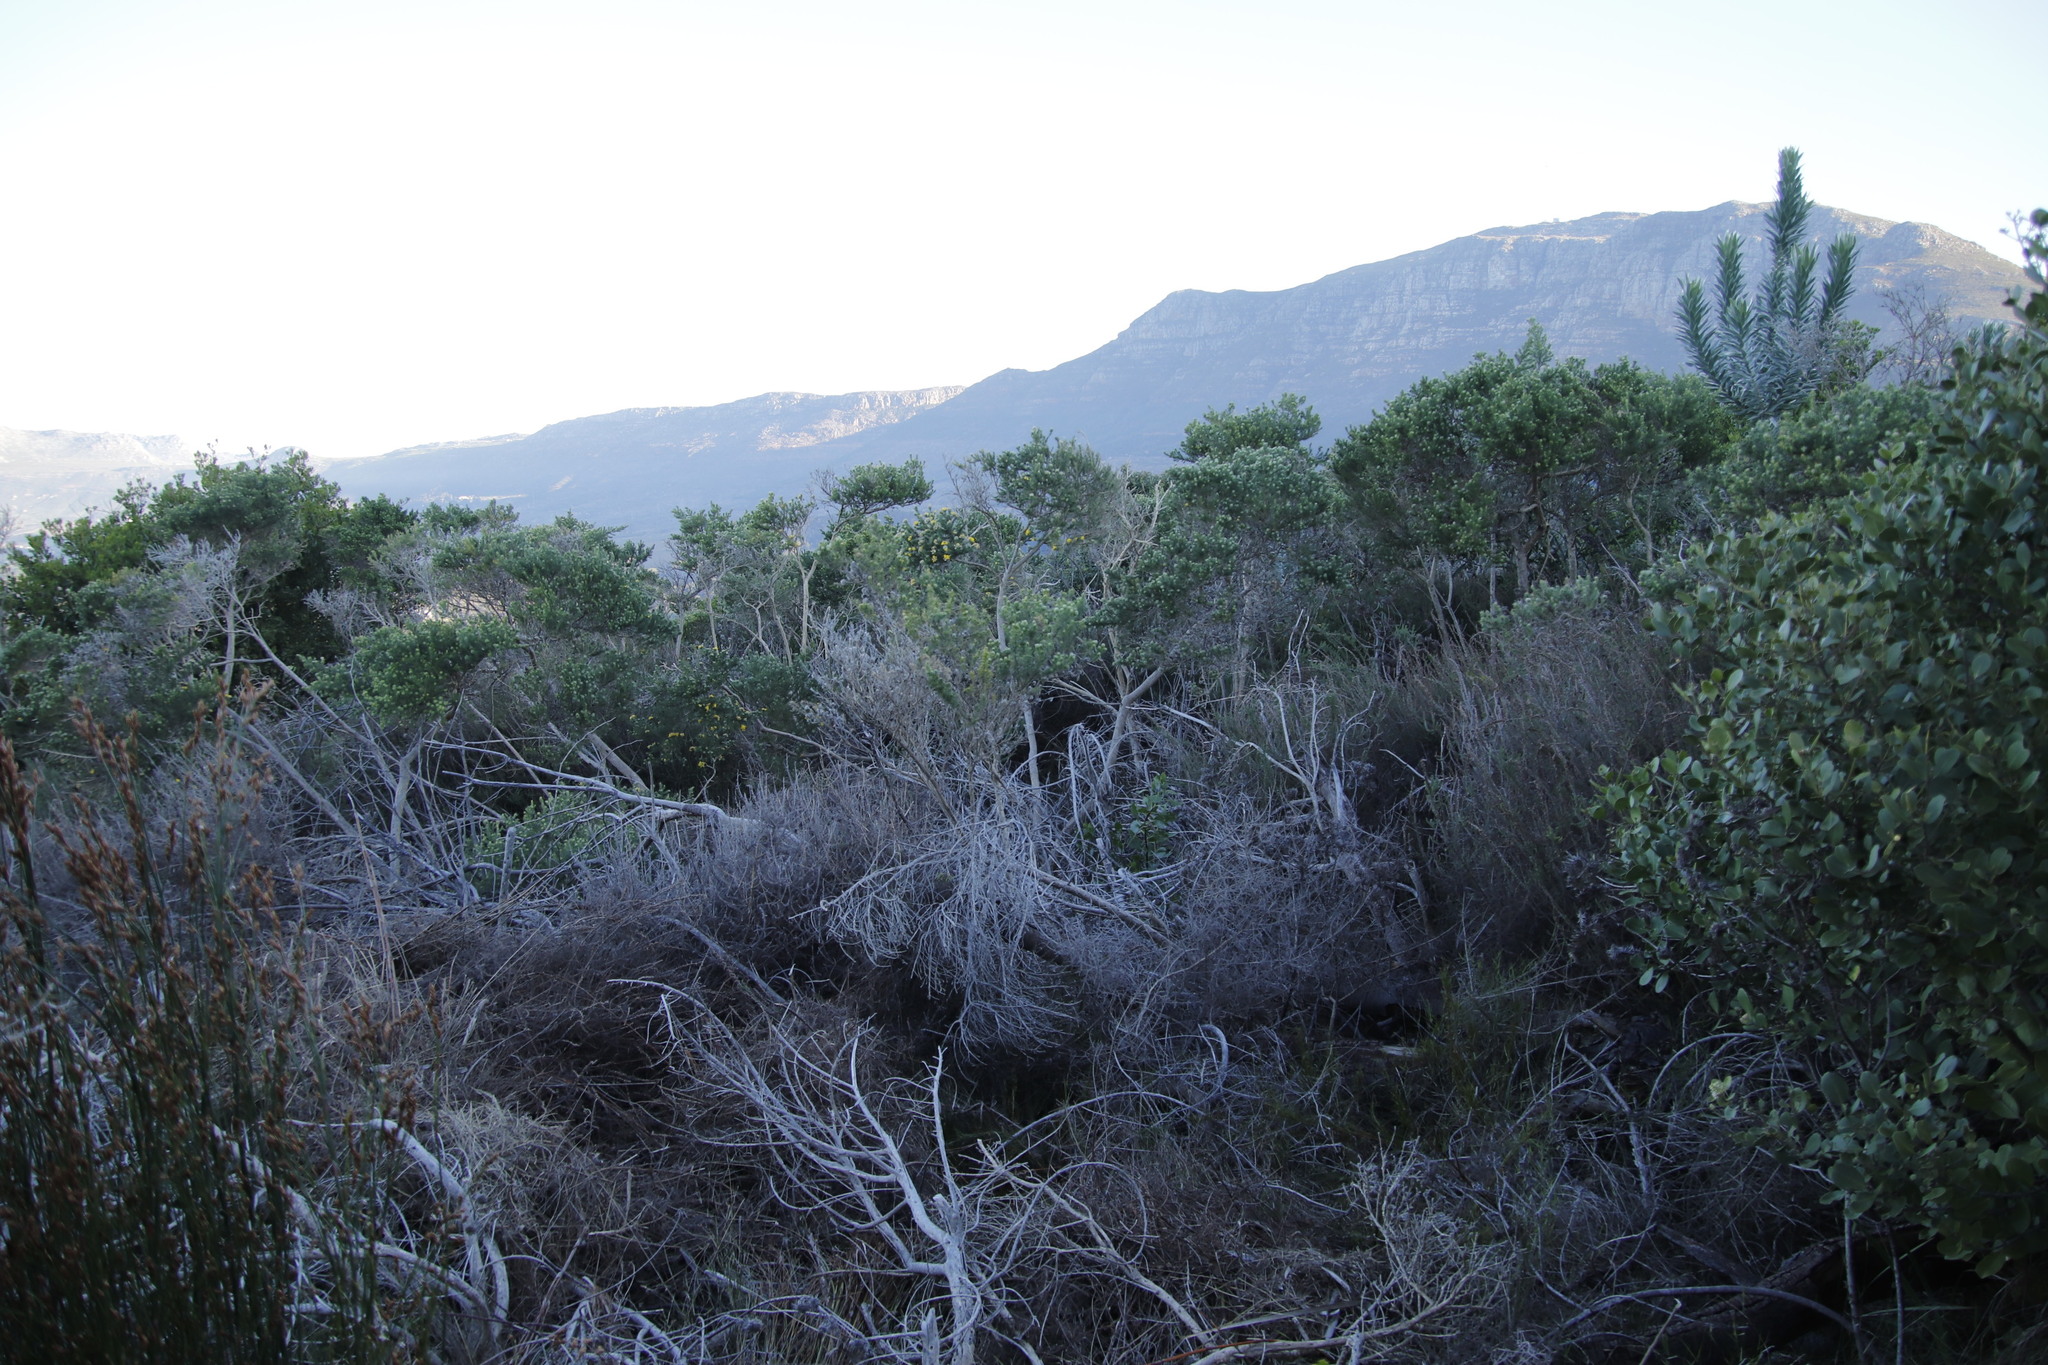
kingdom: Plantae
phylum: Tracheophyta
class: Magnoliopsida
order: Fabales
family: Fabaceae
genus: Aspalathus
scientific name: Aspalathus chenopoda
